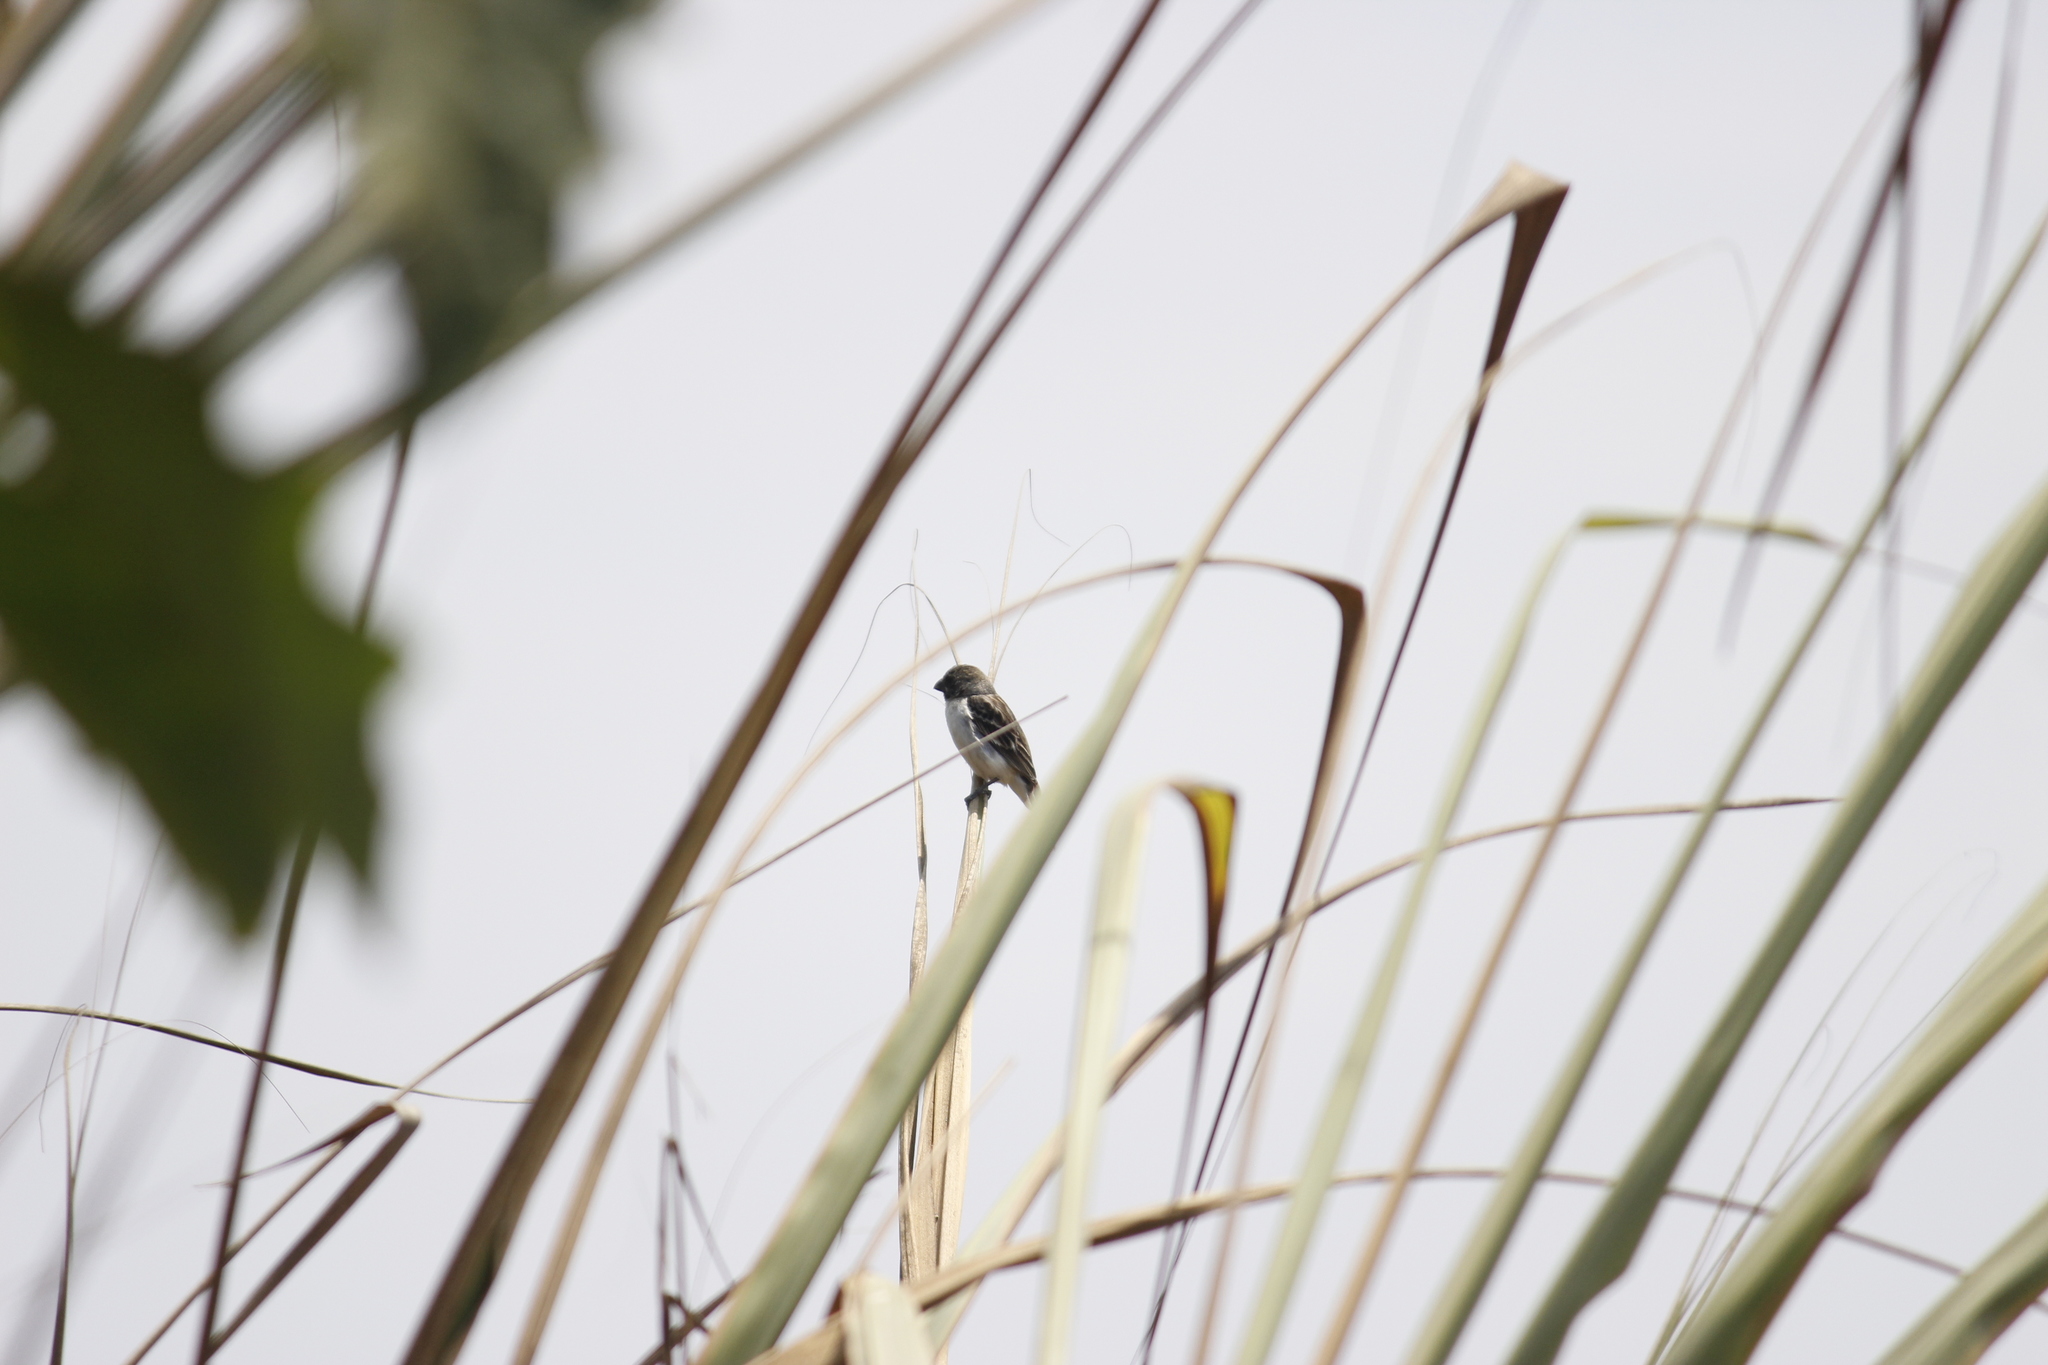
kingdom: Animalia
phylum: Chordata
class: Aves
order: Passeriformes
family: Thraupidae
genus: Sporophila
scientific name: Sporophila telasco
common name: Chestnut-throated seedeater
